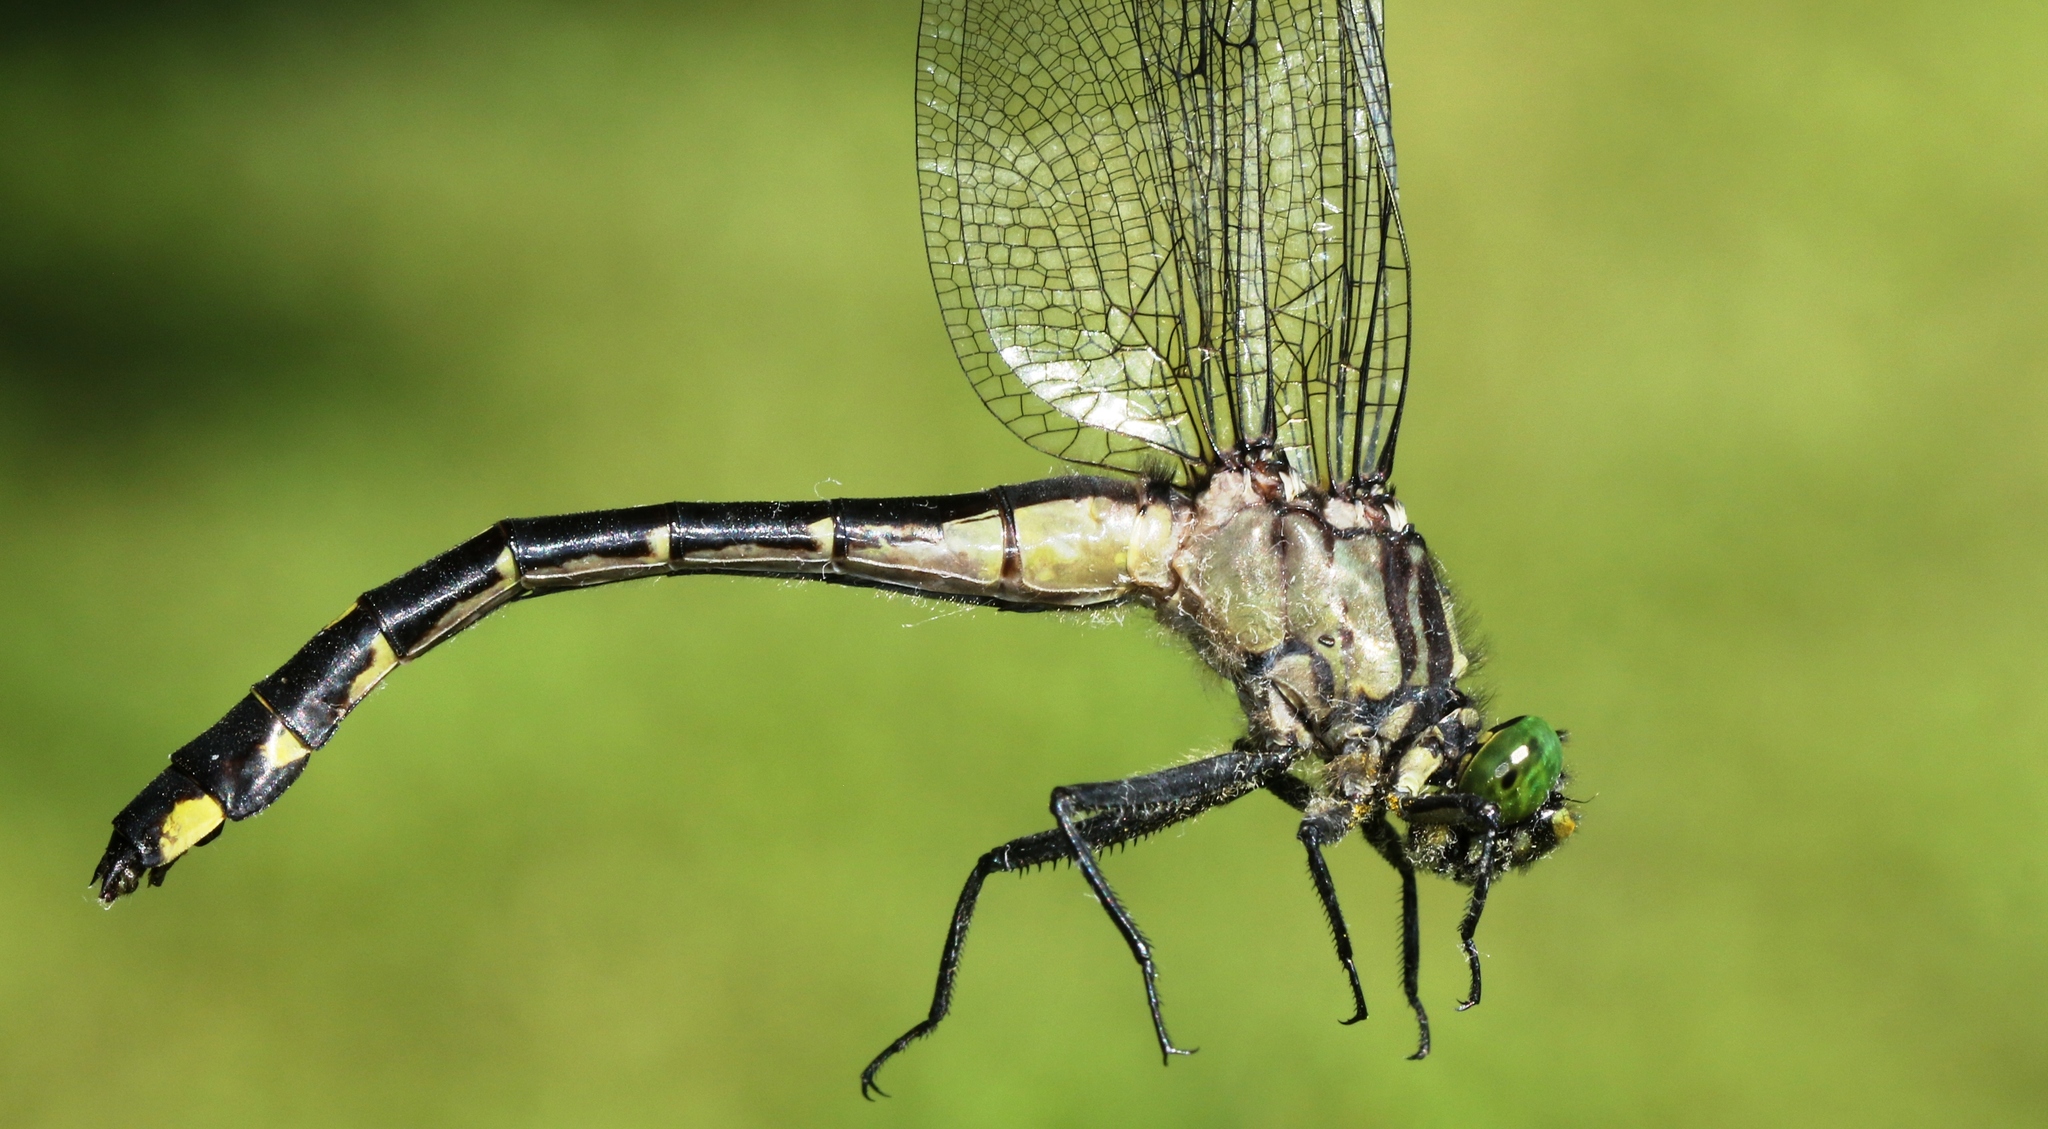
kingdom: Animalia
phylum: Arthropoda
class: Insecta
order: Odonata
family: Gomphidae
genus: Gomphurus
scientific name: Gomphurus vastus
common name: Cobra clubtail
